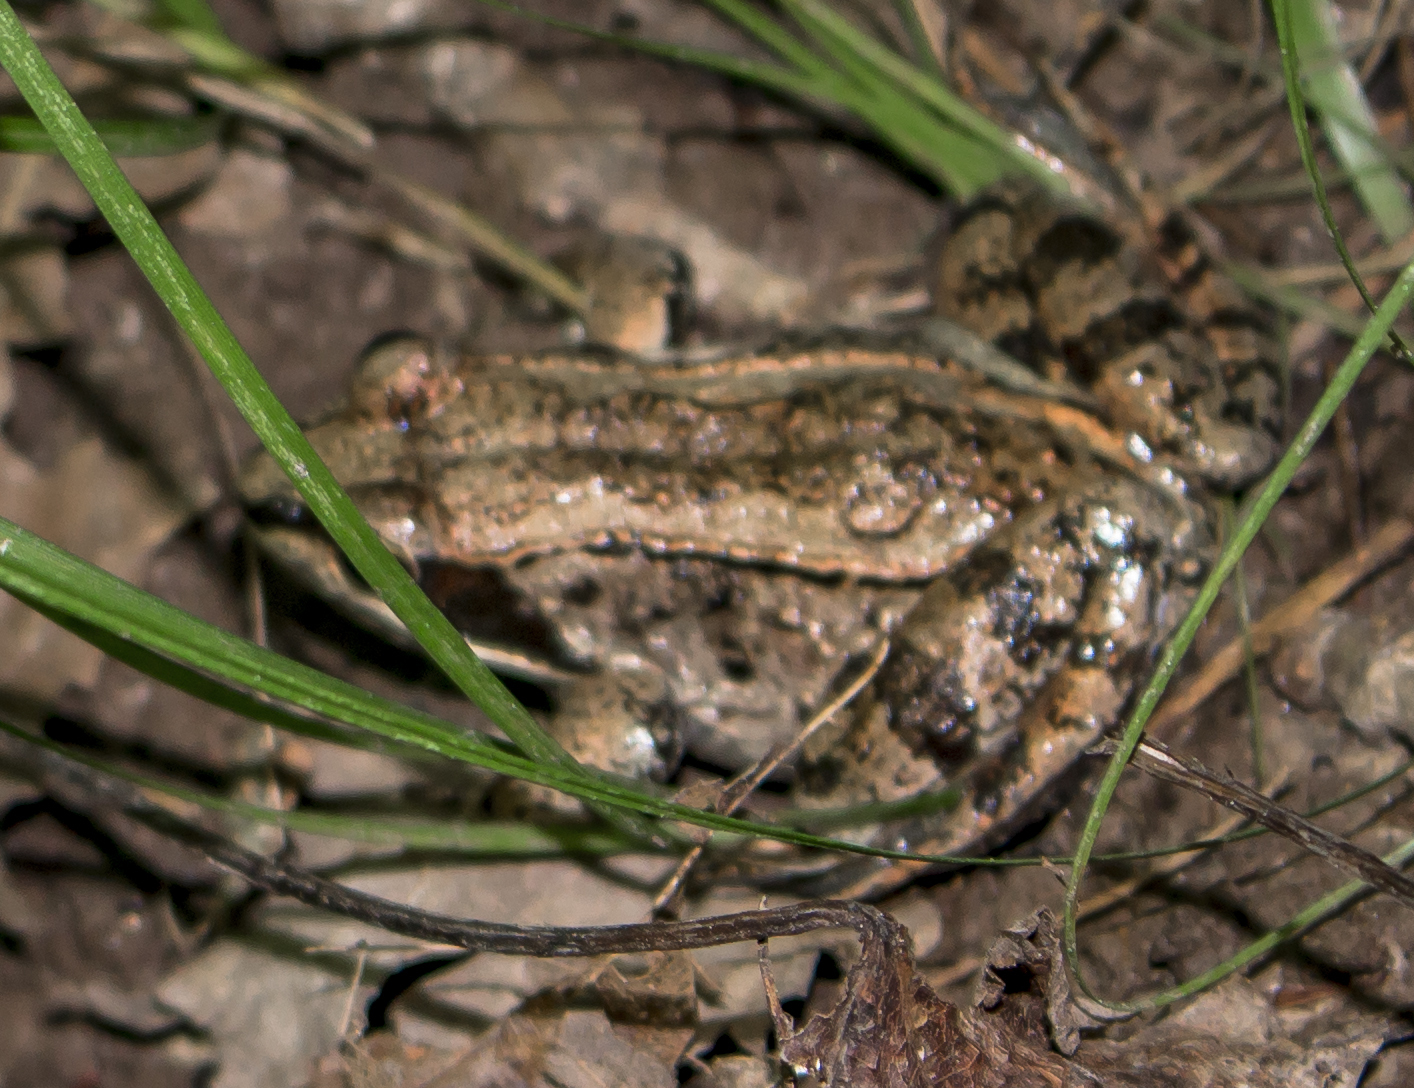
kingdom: Animalia
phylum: Chordata
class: Amphibia
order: Anura
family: Ranidae
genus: Lithobates
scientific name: Lithobates sylvaticus
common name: Wood frog
